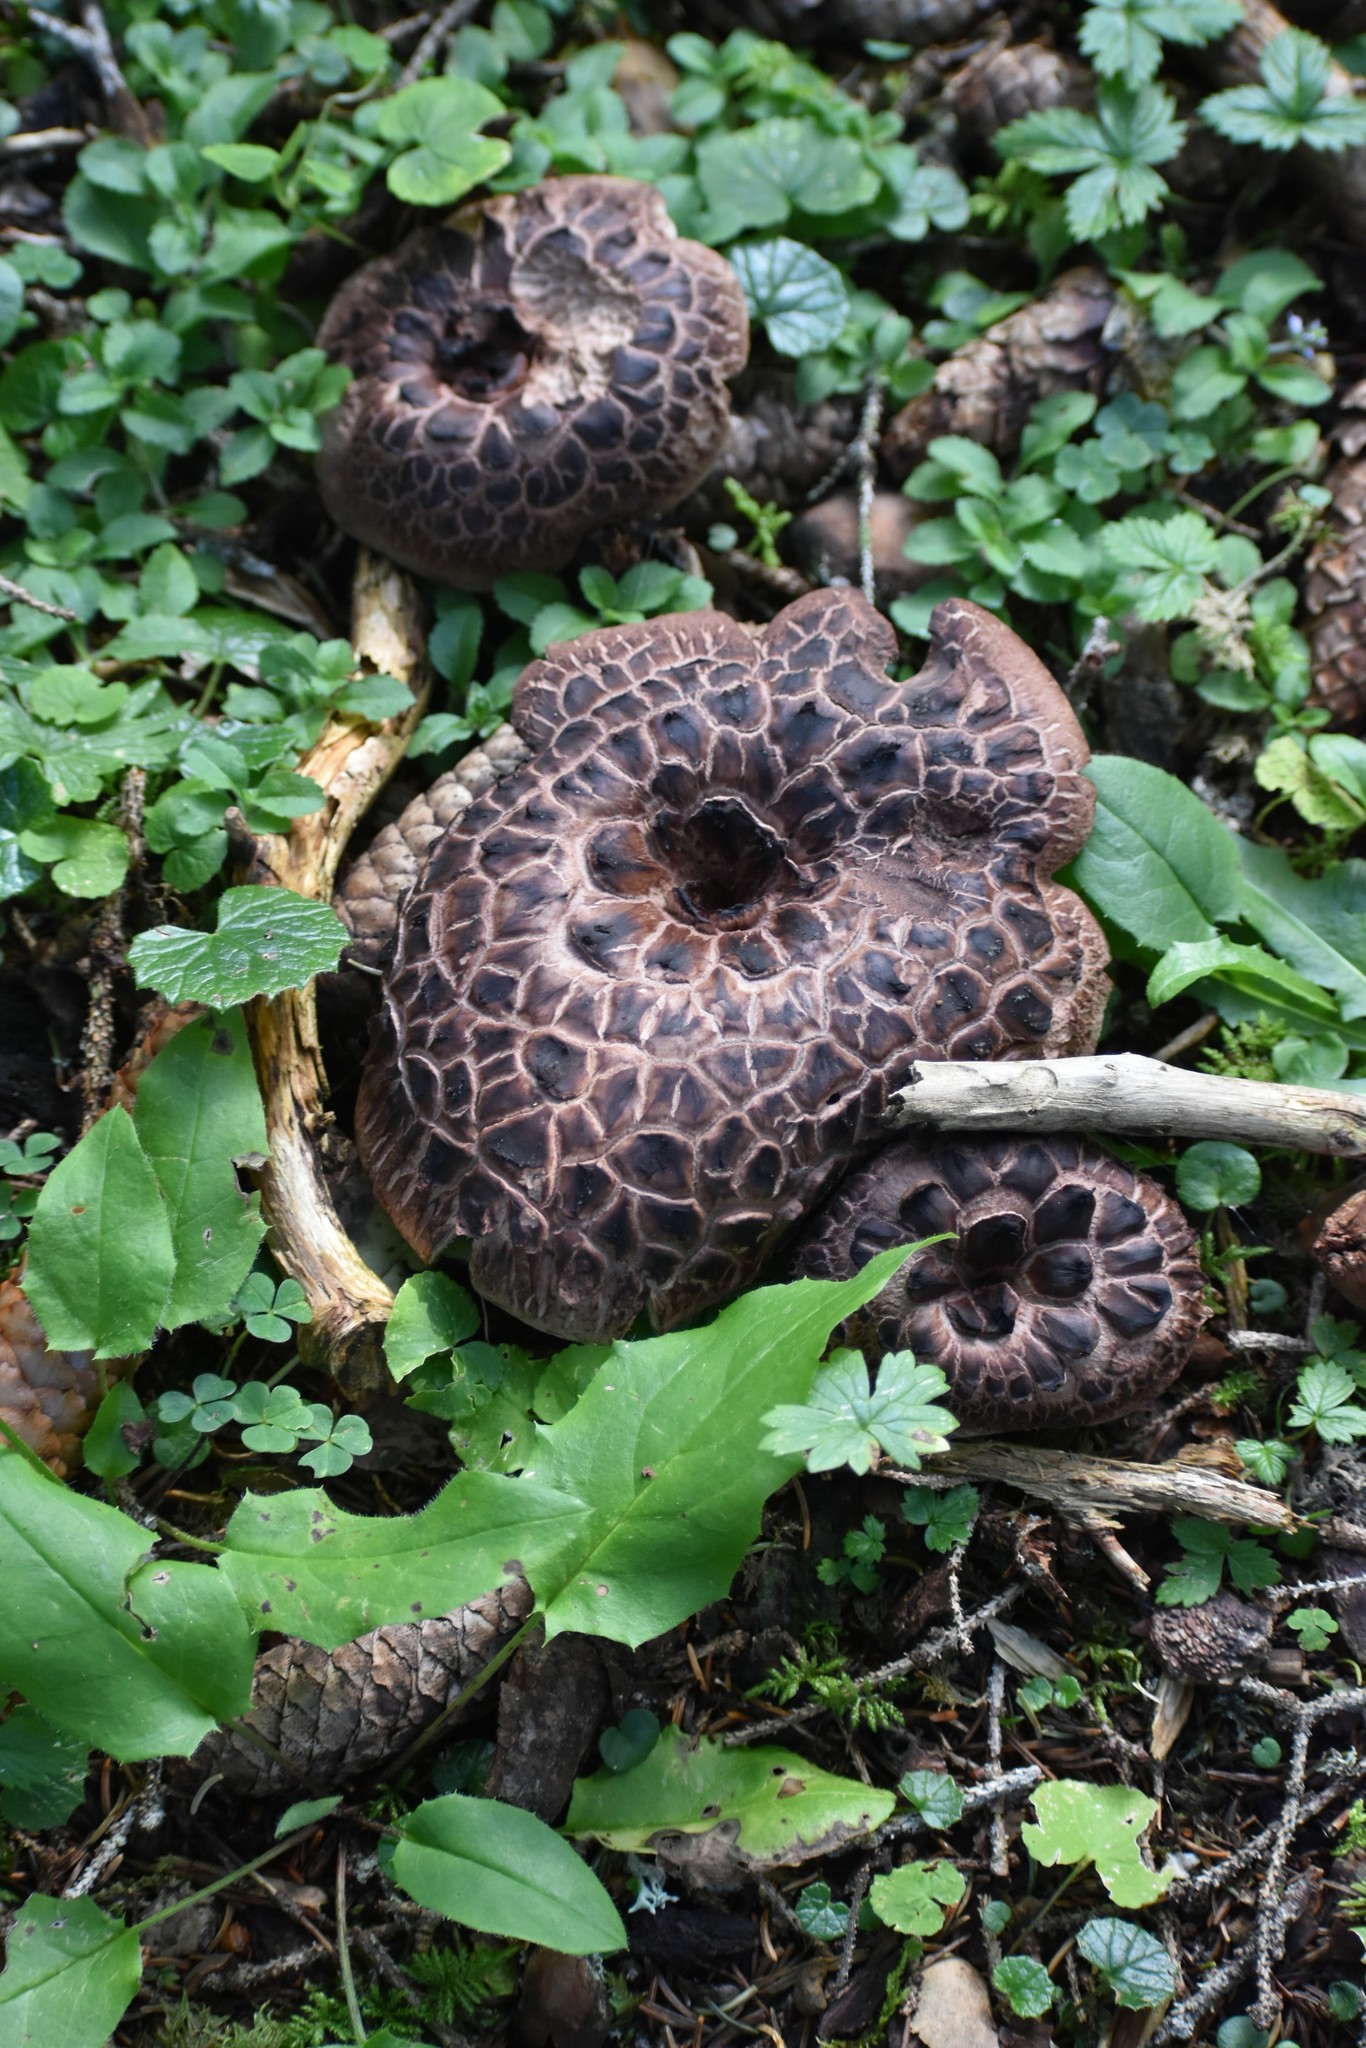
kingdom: Fungi
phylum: Basidiomycota
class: Agaricomycetes
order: Thelephorales
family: Bankeraceae
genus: Sarcodon
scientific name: Sarcodon imbricatus
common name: Shingled hedgehog
